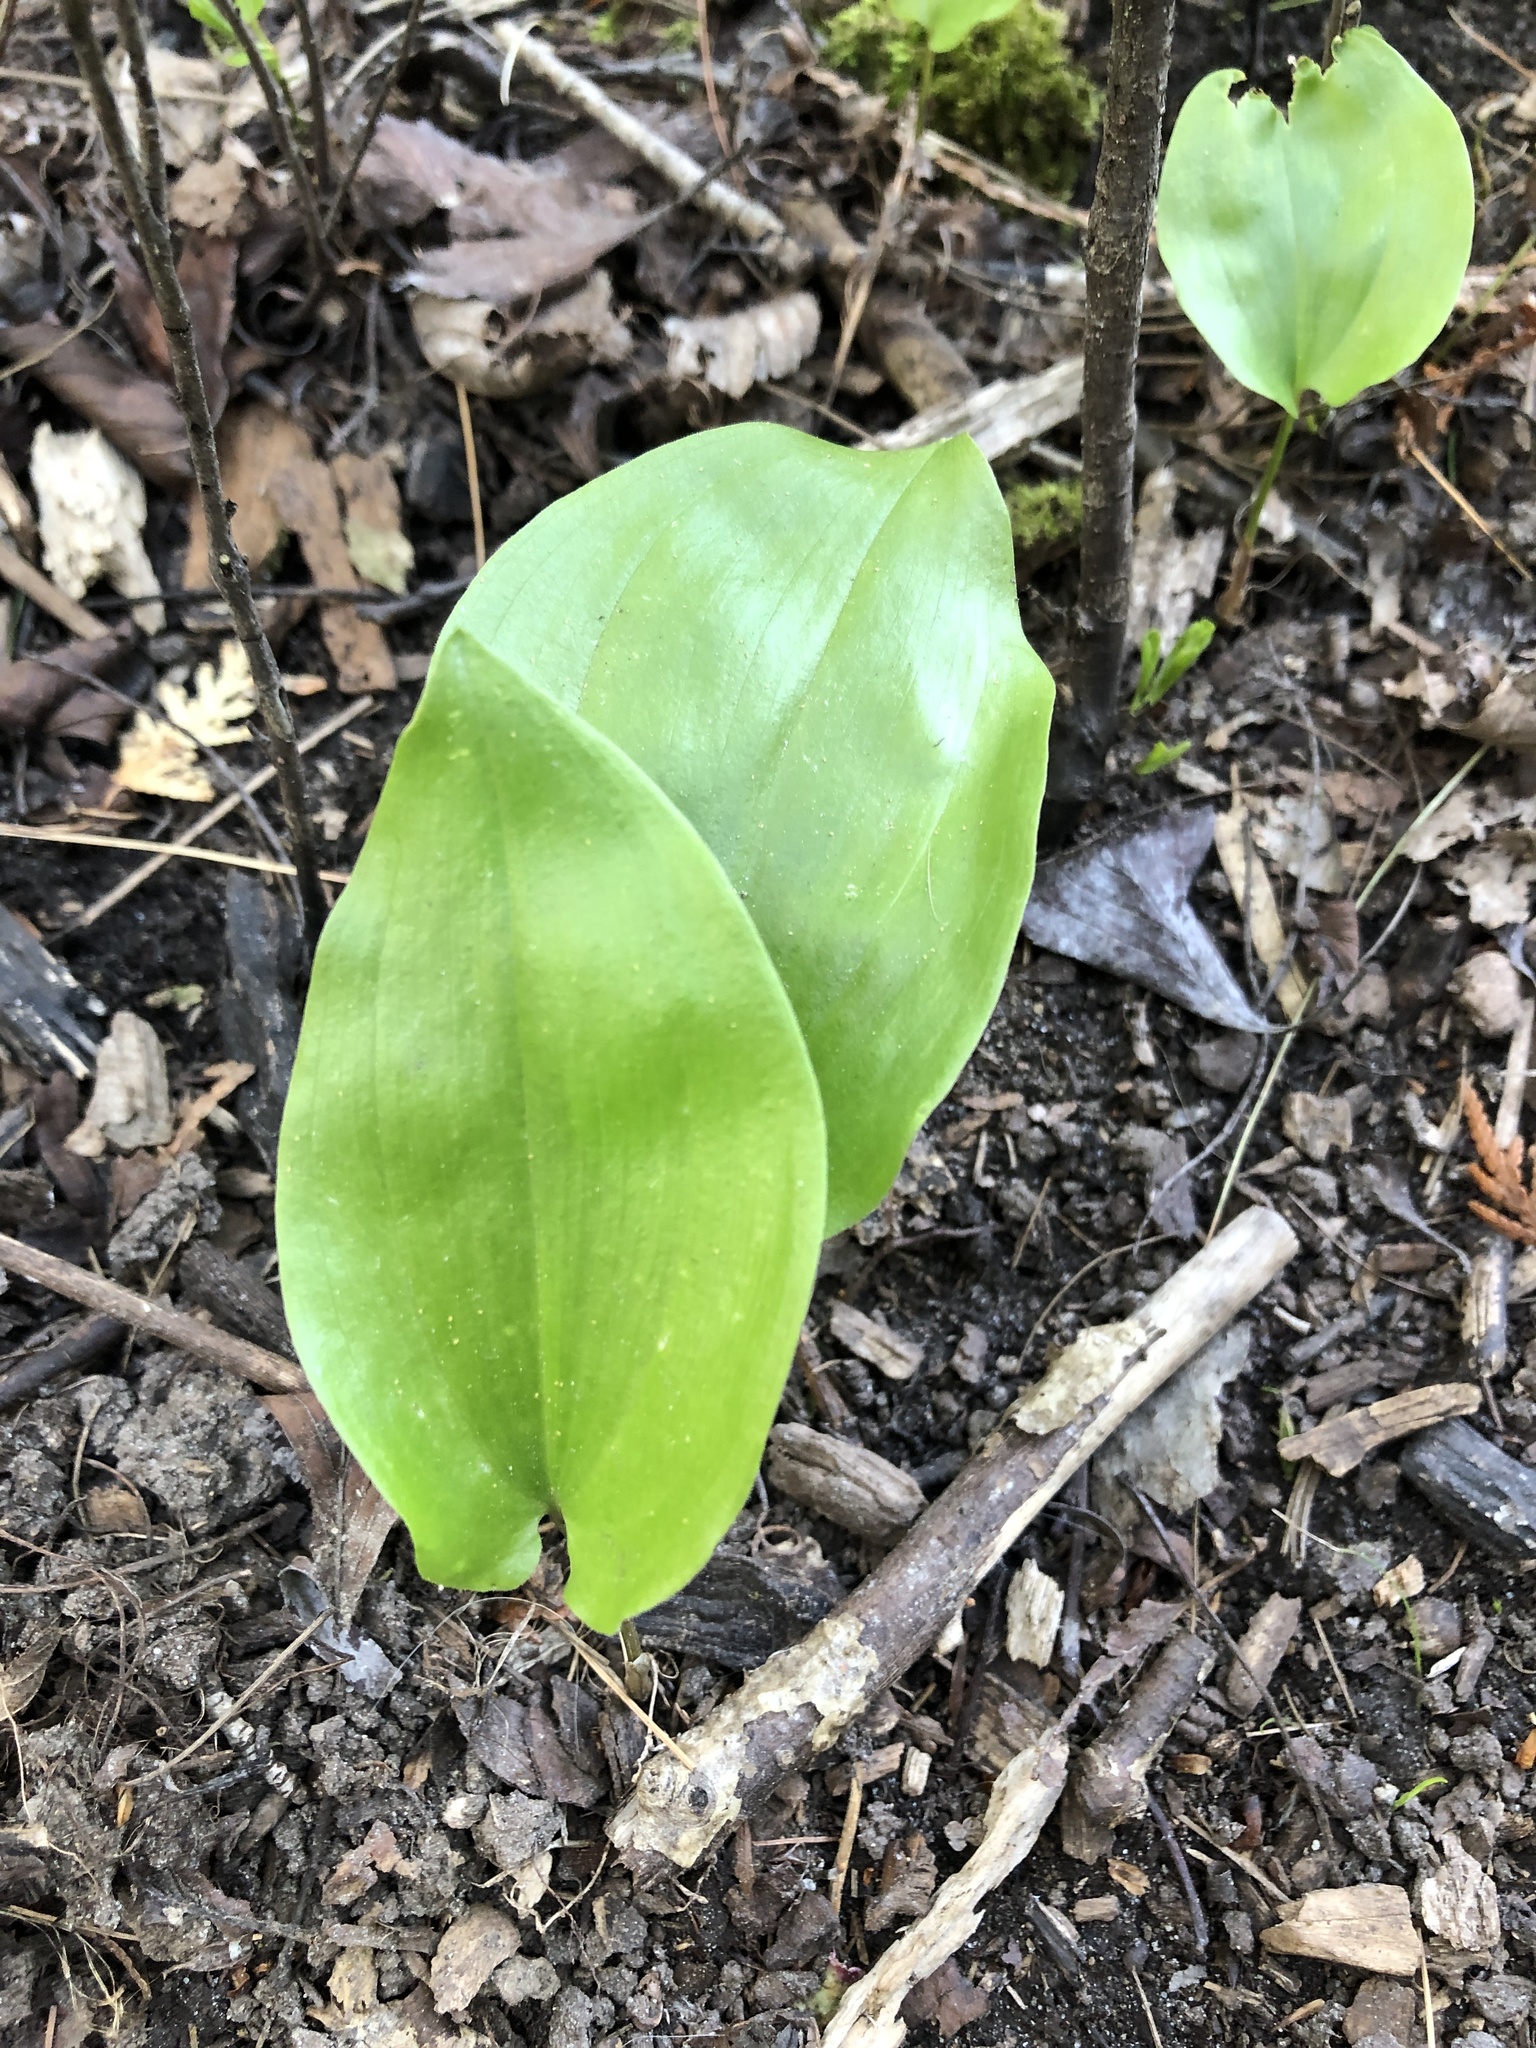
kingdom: Plantae
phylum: Tracheophyta
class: Liliopsida
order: Asparagales
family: Asparagaceae
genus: Maianthemum
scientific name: Maianthemum canadense
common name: False lily-of-the-valley
